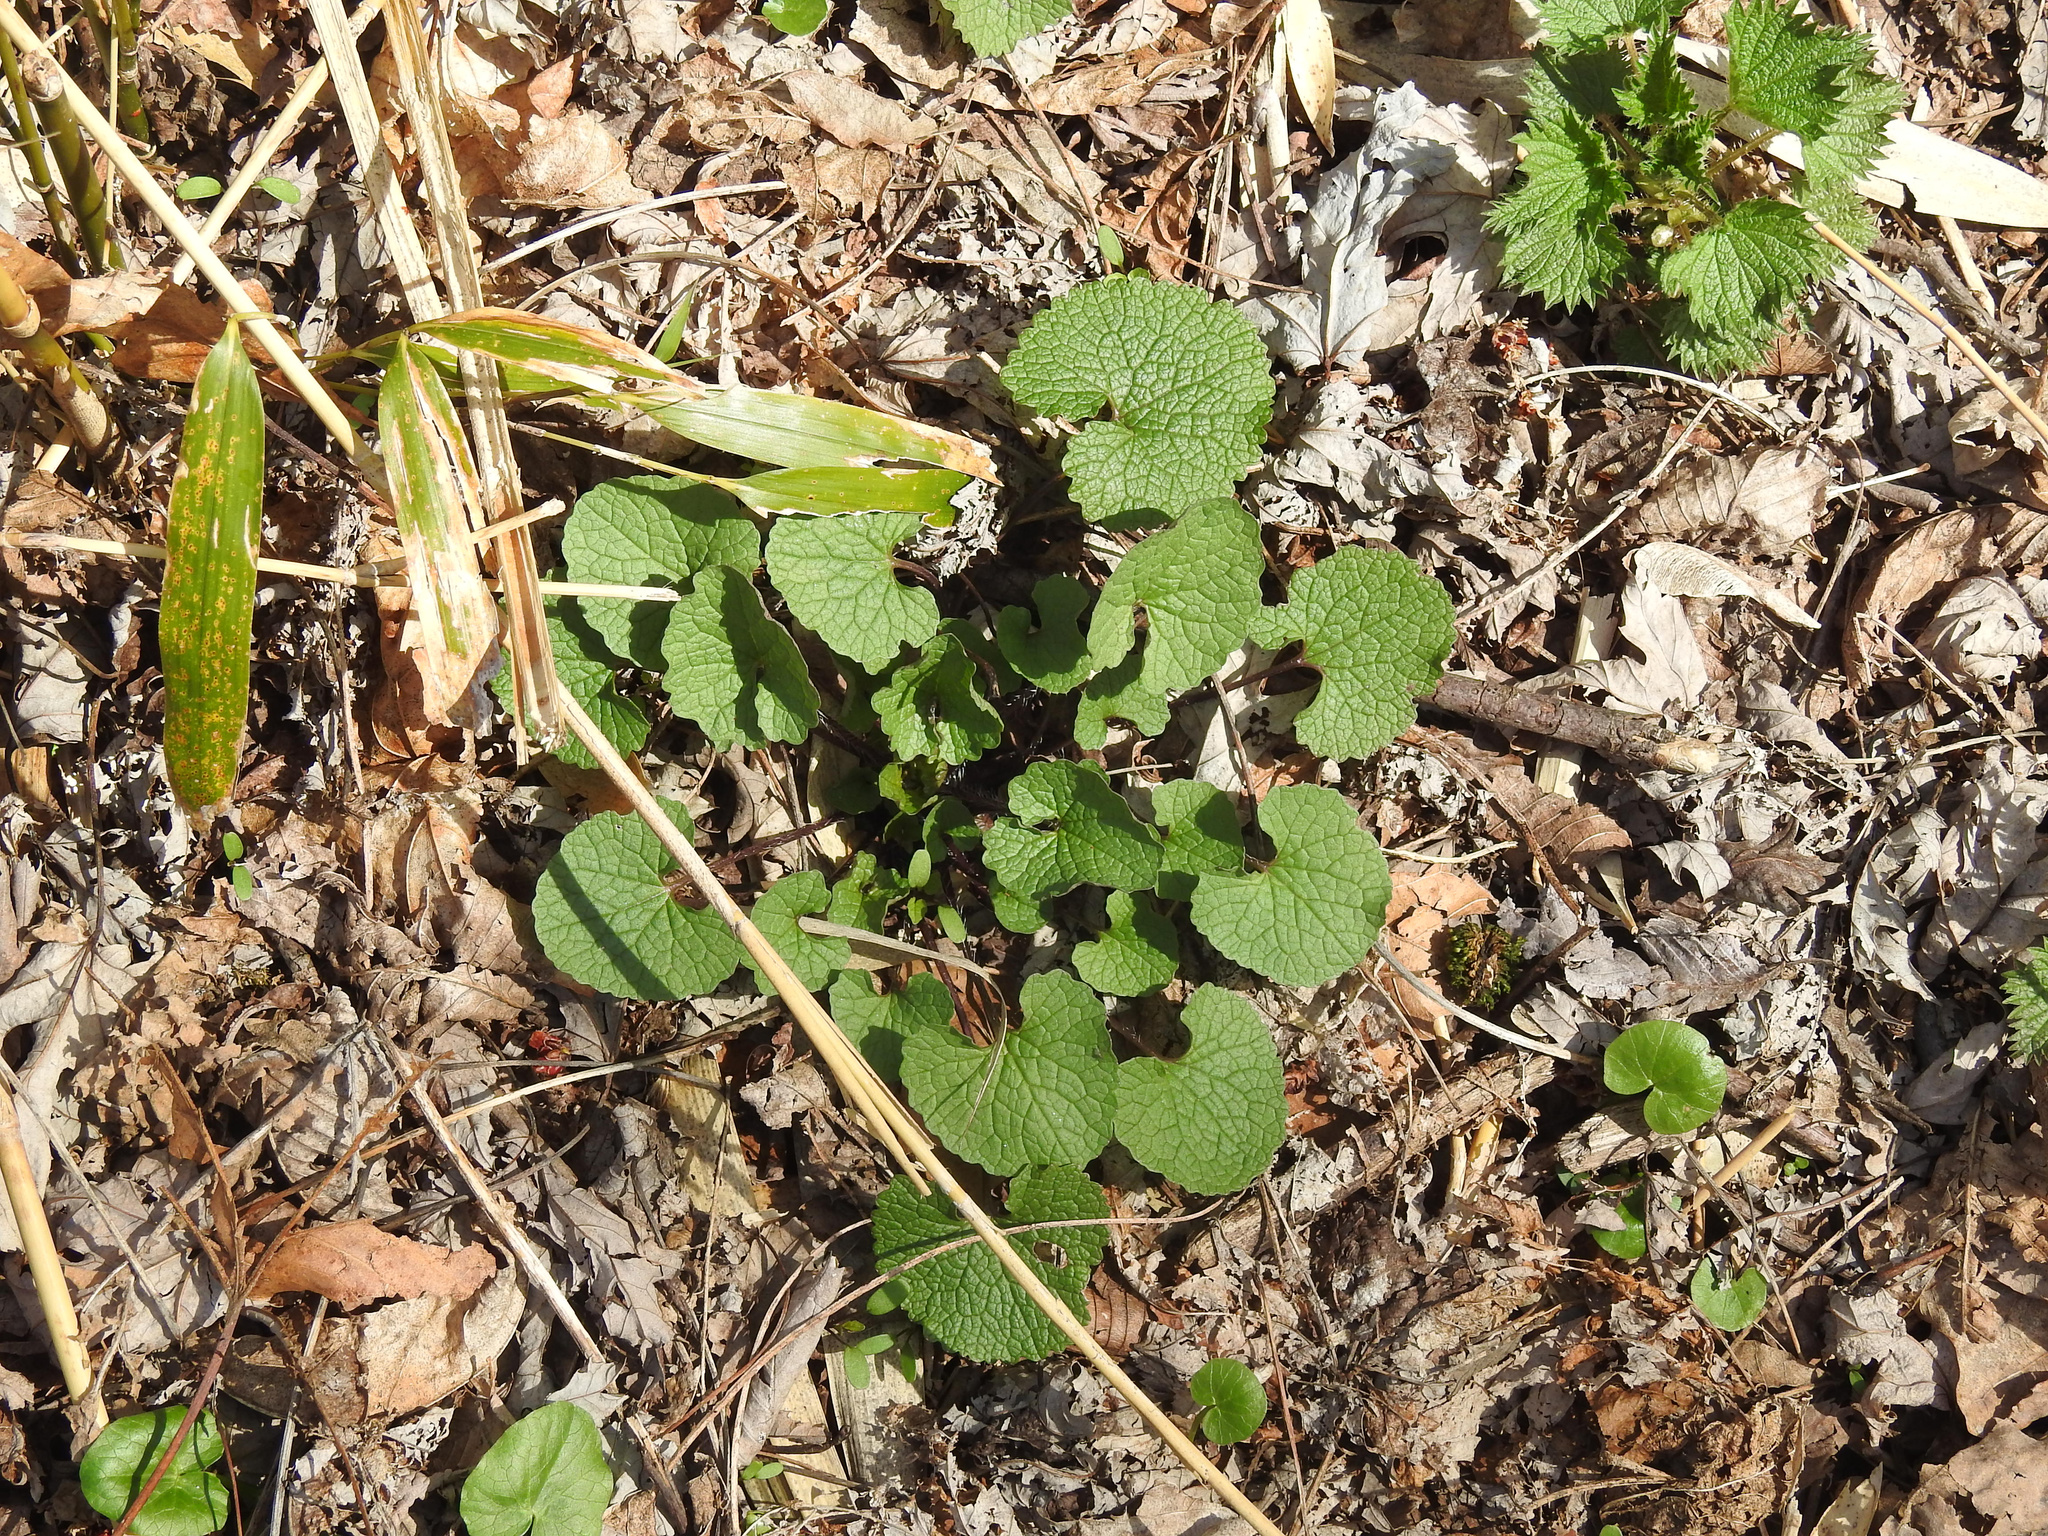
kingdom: Plantae
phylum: Tracheophyta
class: Magnoliopsida
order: Brassicales
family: Brassicaceae
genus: Alliaria
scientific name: Alliaria petiolata
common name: Garlic mustard
